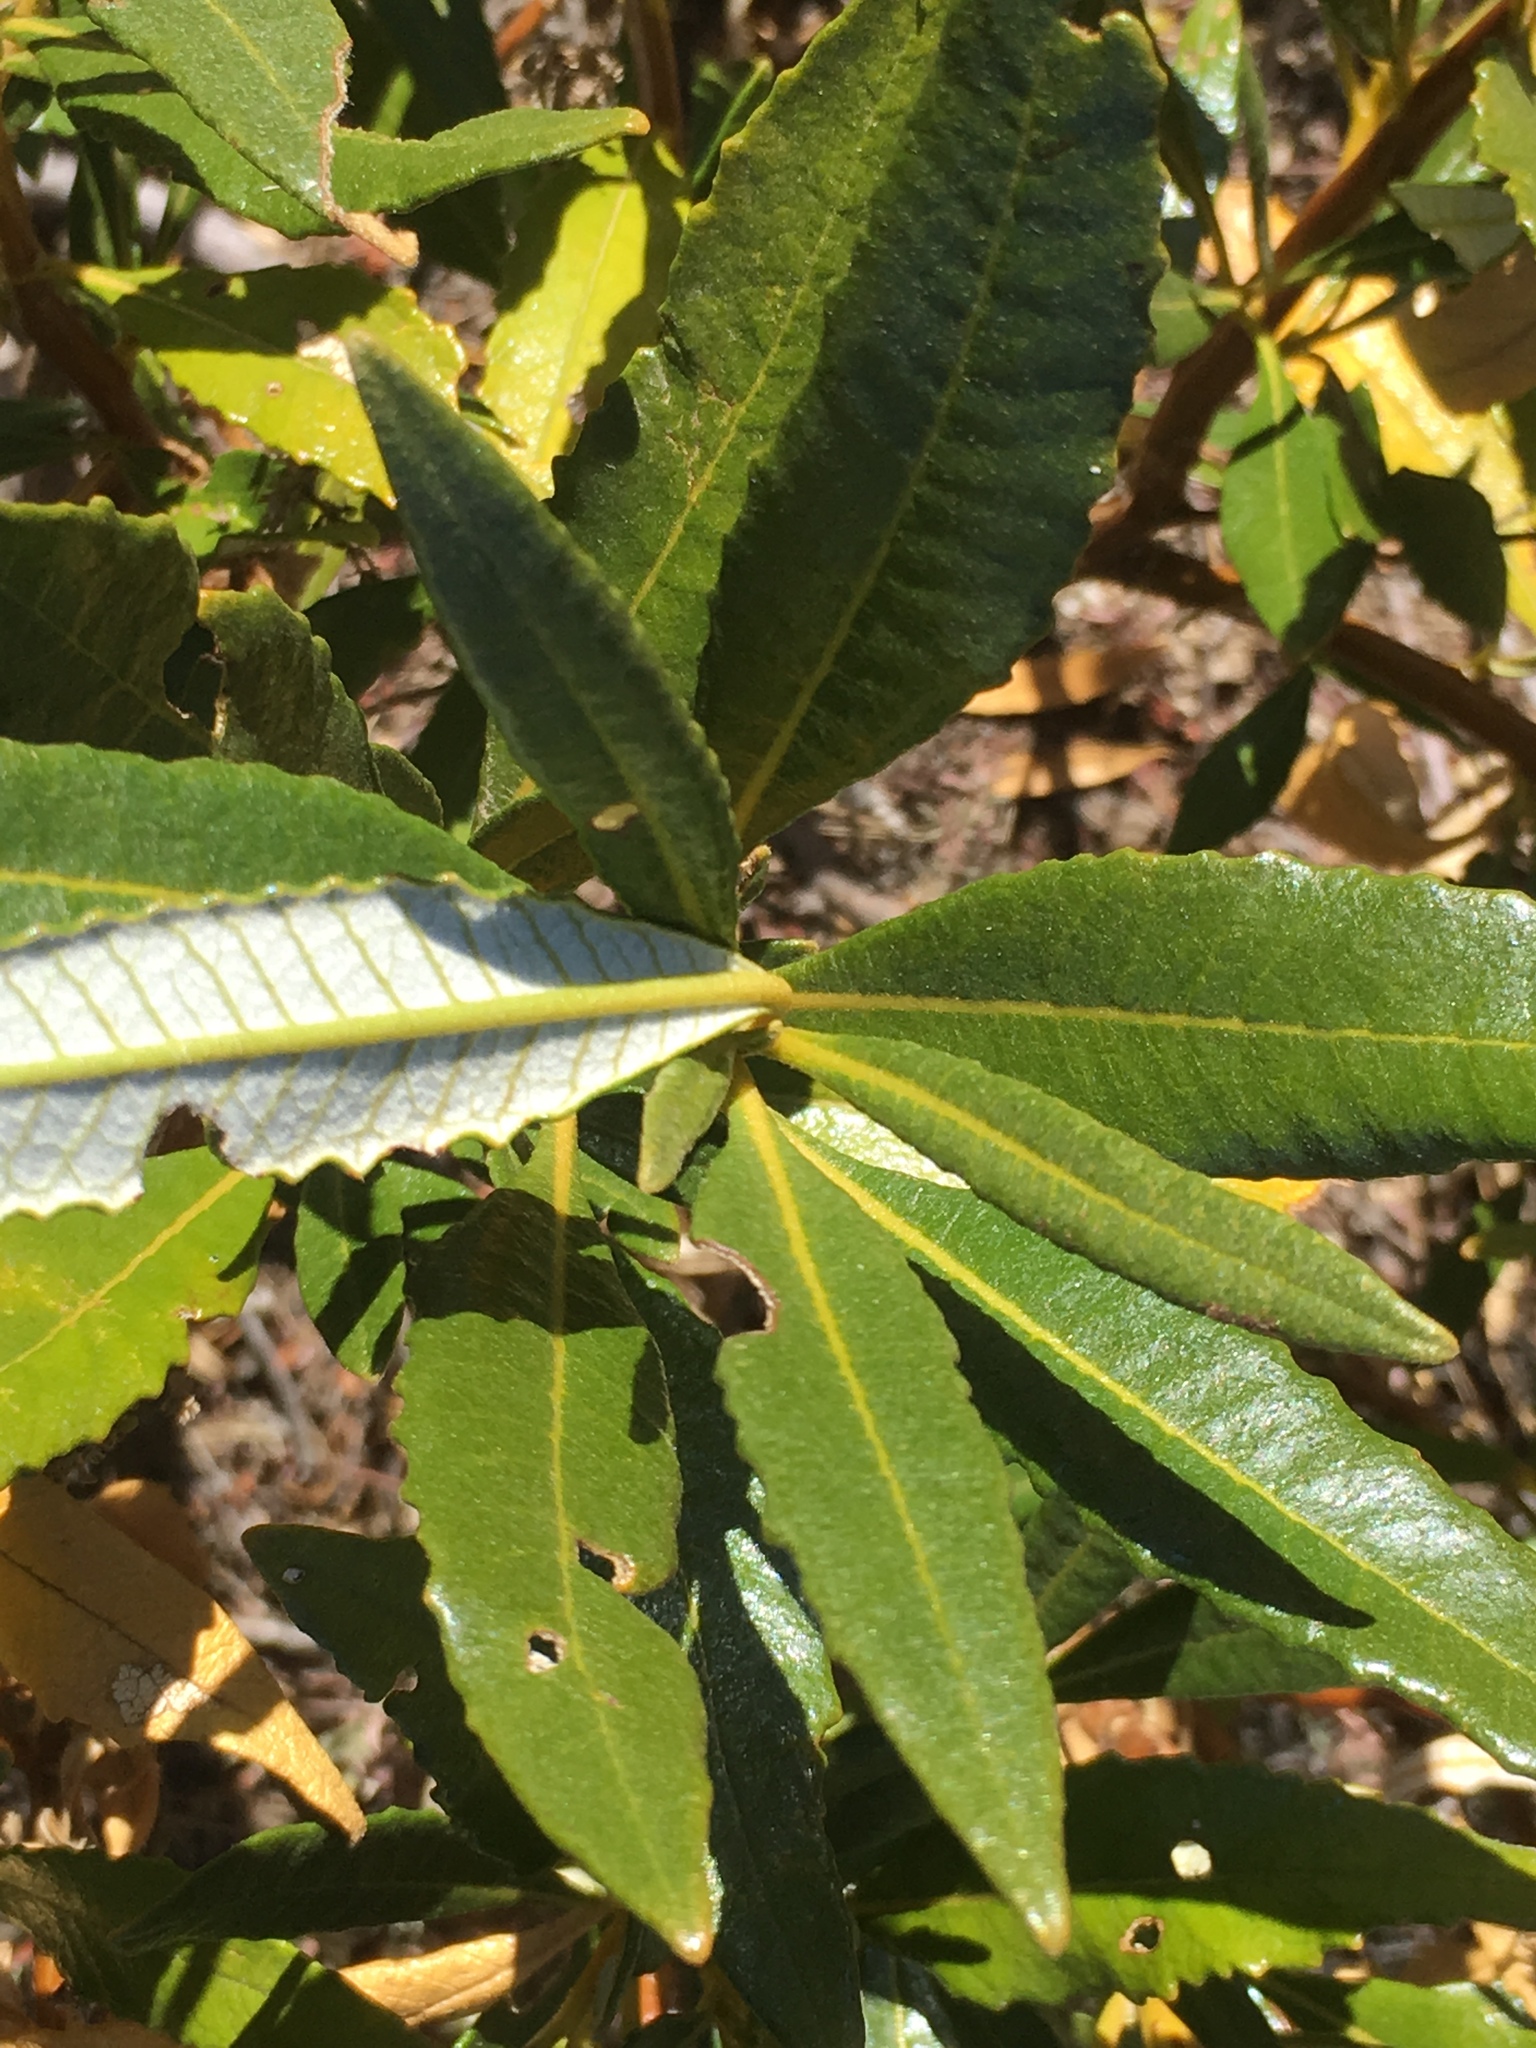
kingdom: Plantae
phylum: Tracheophyta
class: Magnoliopsida
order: Boraginales
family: Namaceae
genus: Eriodictyon
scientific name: Eriodictyon trichocalyx
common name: Hairy yerba-santa
